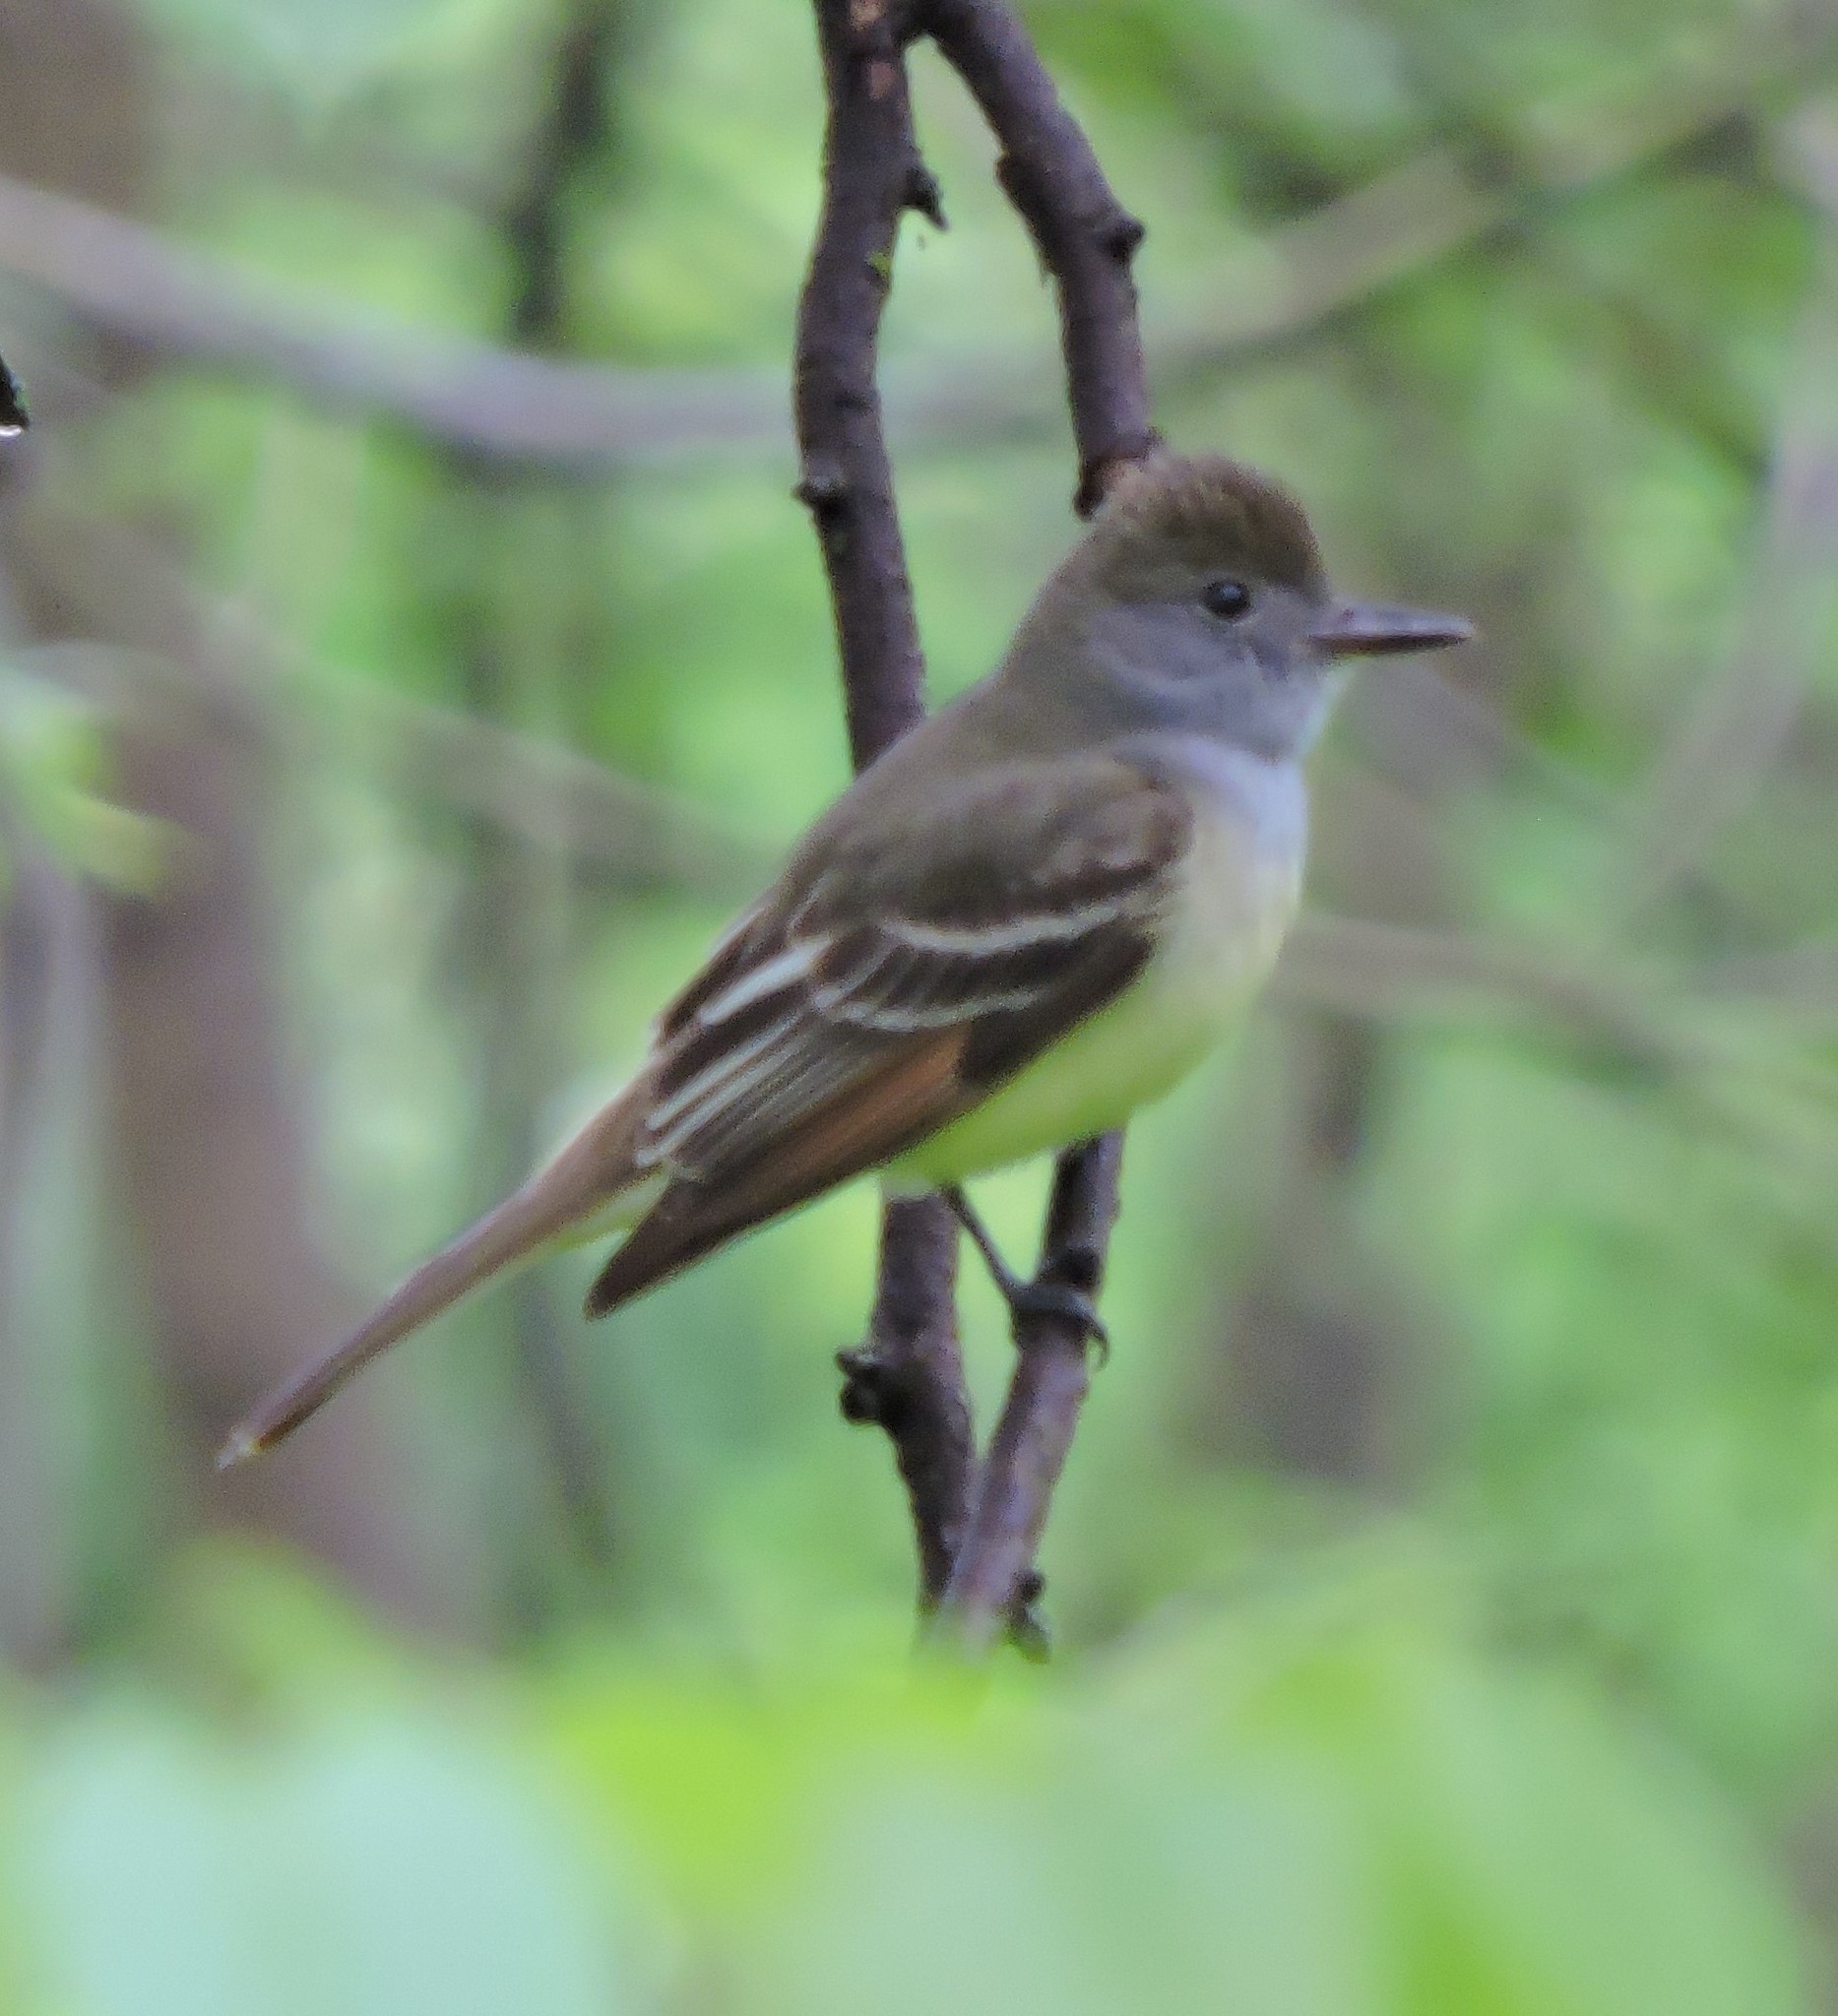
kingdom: Animalia
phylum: Chordata
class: Aves
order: Passeriformes
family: Tyrannidae
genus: Myiarchus
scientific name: Myiarchus crinitus
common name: Great crested flycatcher
